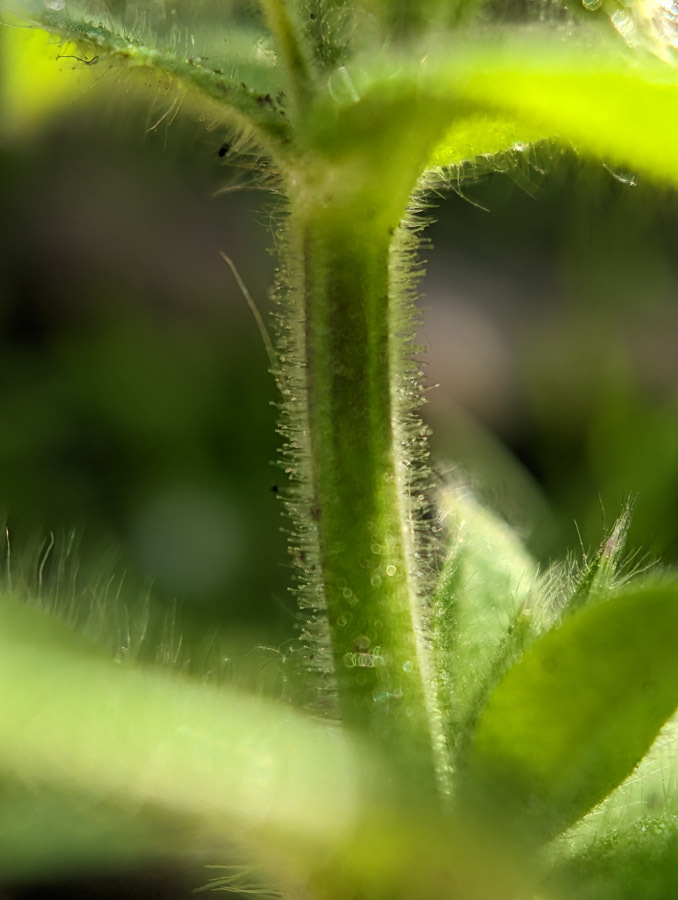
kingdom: Plantae
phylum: Tracheophyta
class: Magnoliopsida
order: Caryophyllales
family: Caryophyllaceae
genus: Cerastium
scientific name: Cerastium glomeratum
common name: Sticky chickweed
